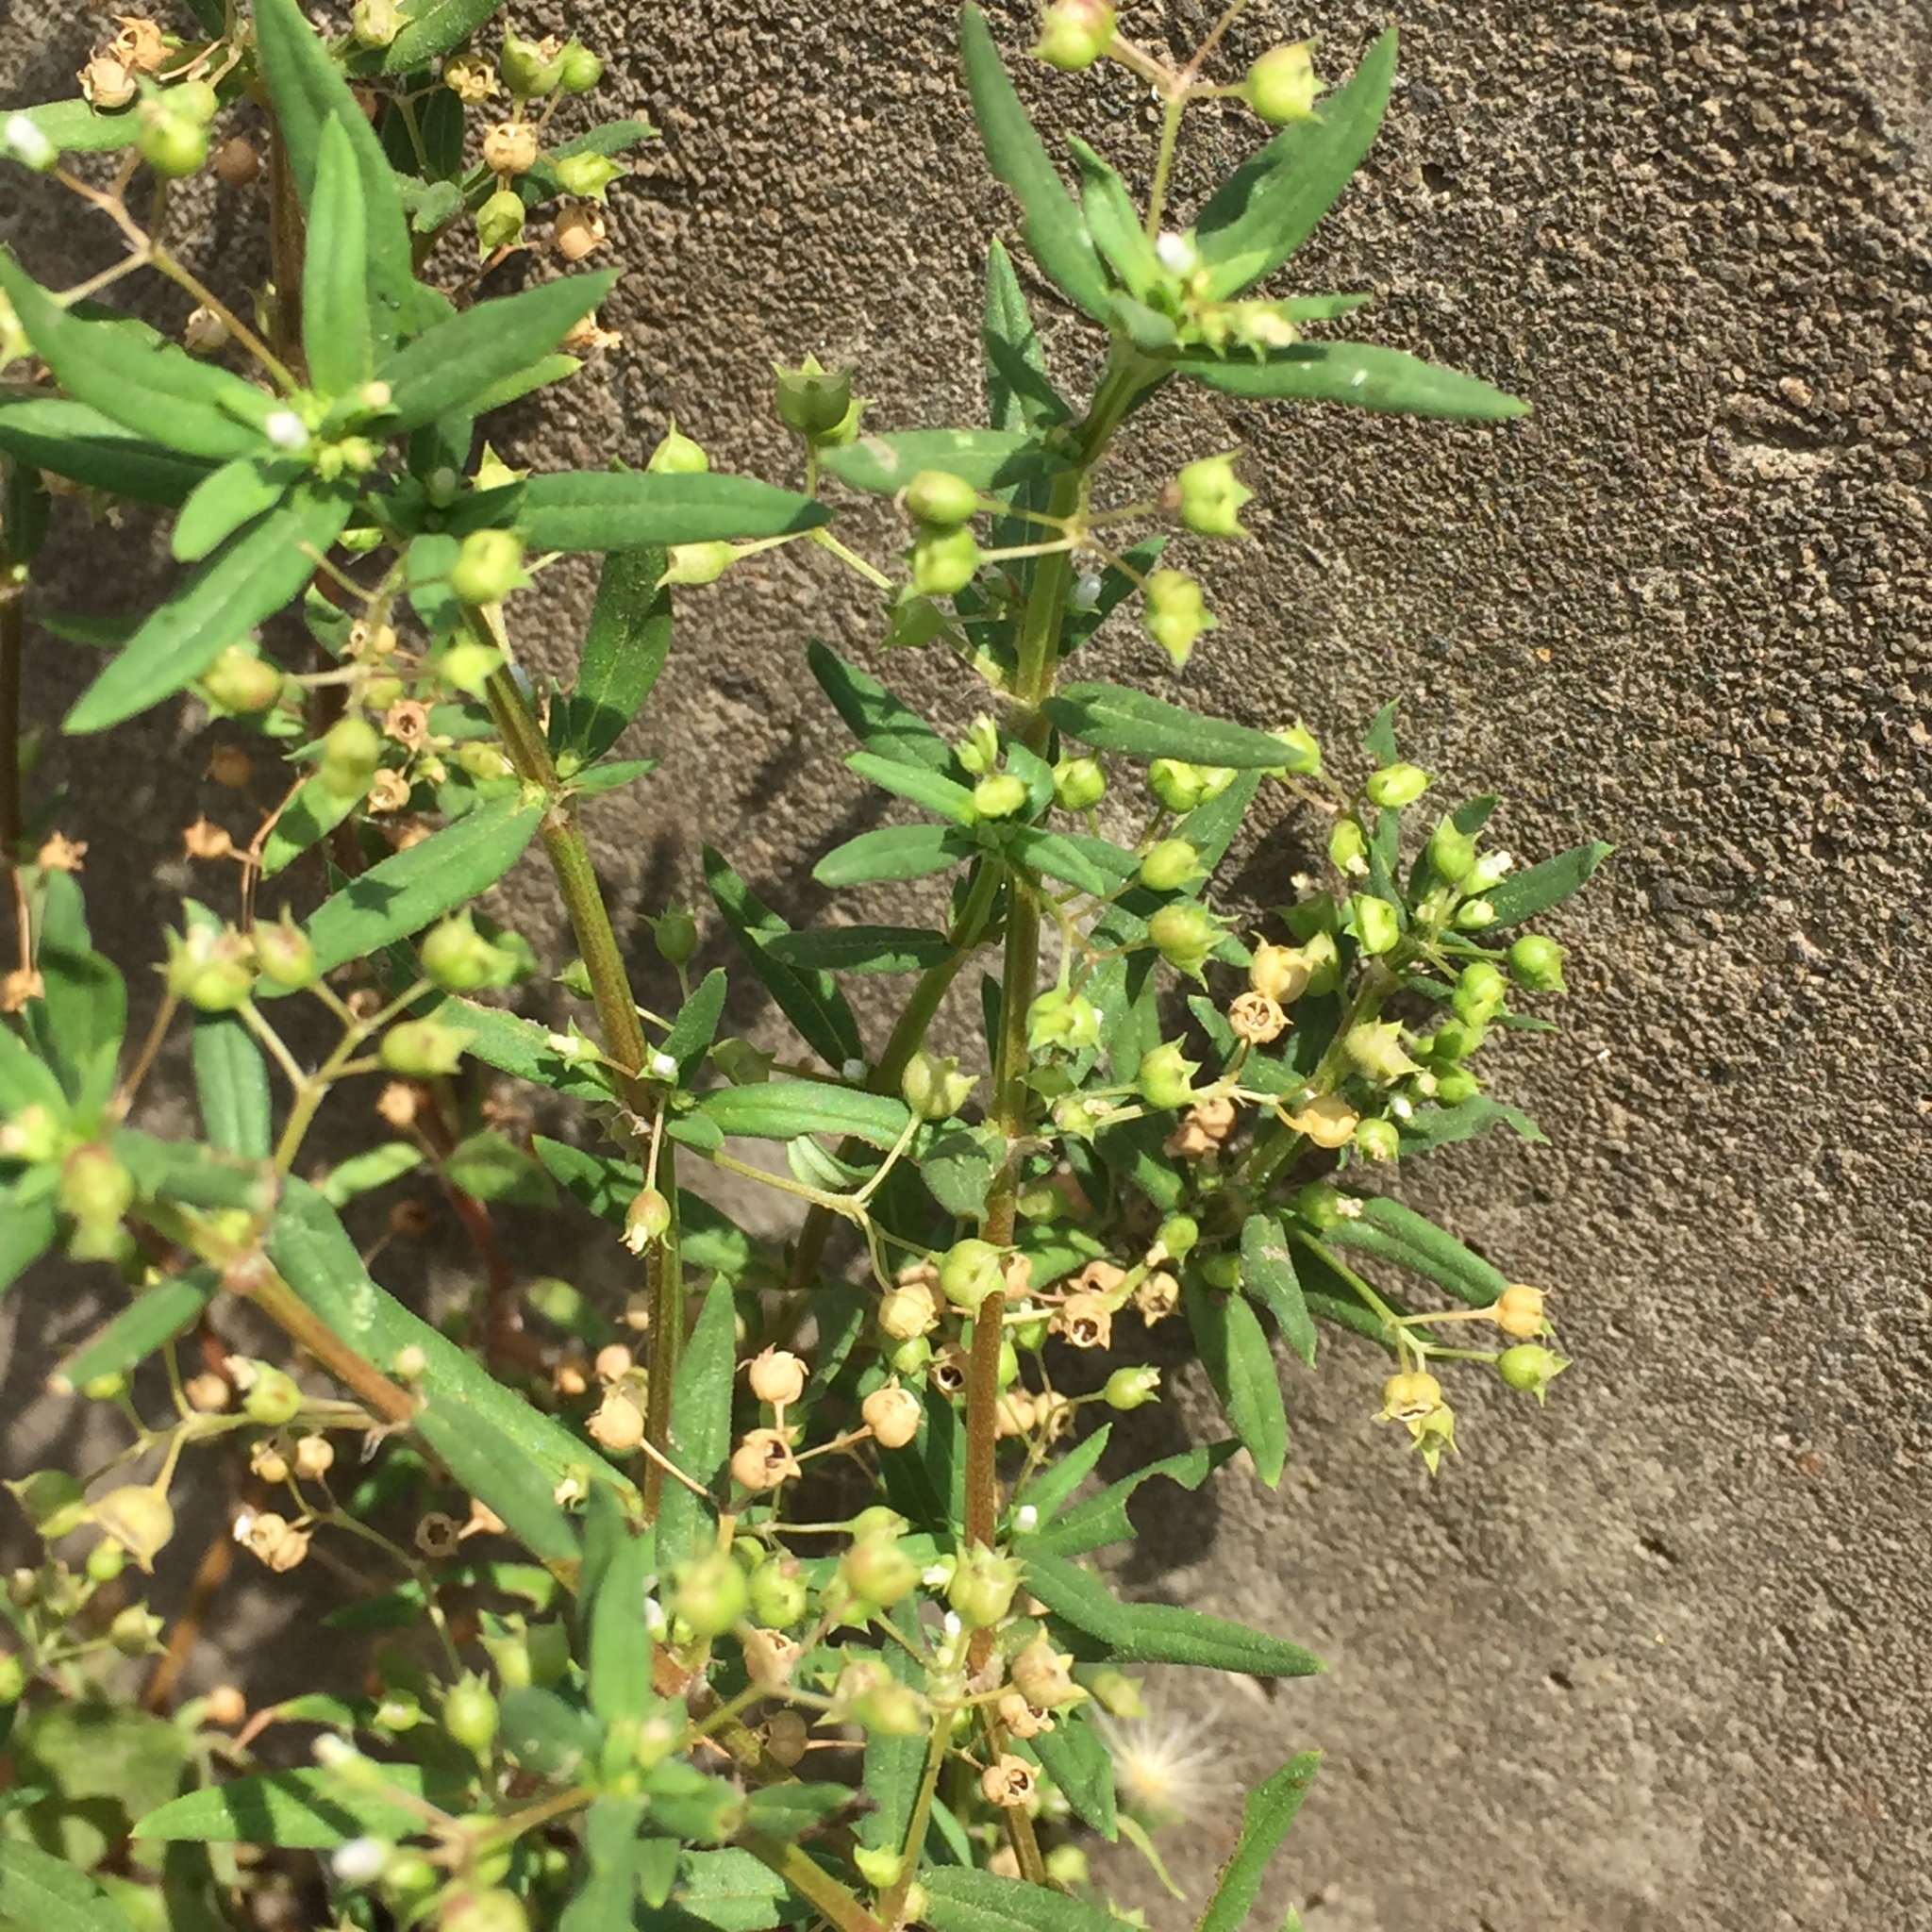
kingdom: Plantae
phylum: Tracheophyta
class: Magnoliopsida
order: Gentianales
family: Rubiaceae
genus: Oldenlandia
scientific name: Oldenlandia corymbosa
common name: Flat-top mille graines
